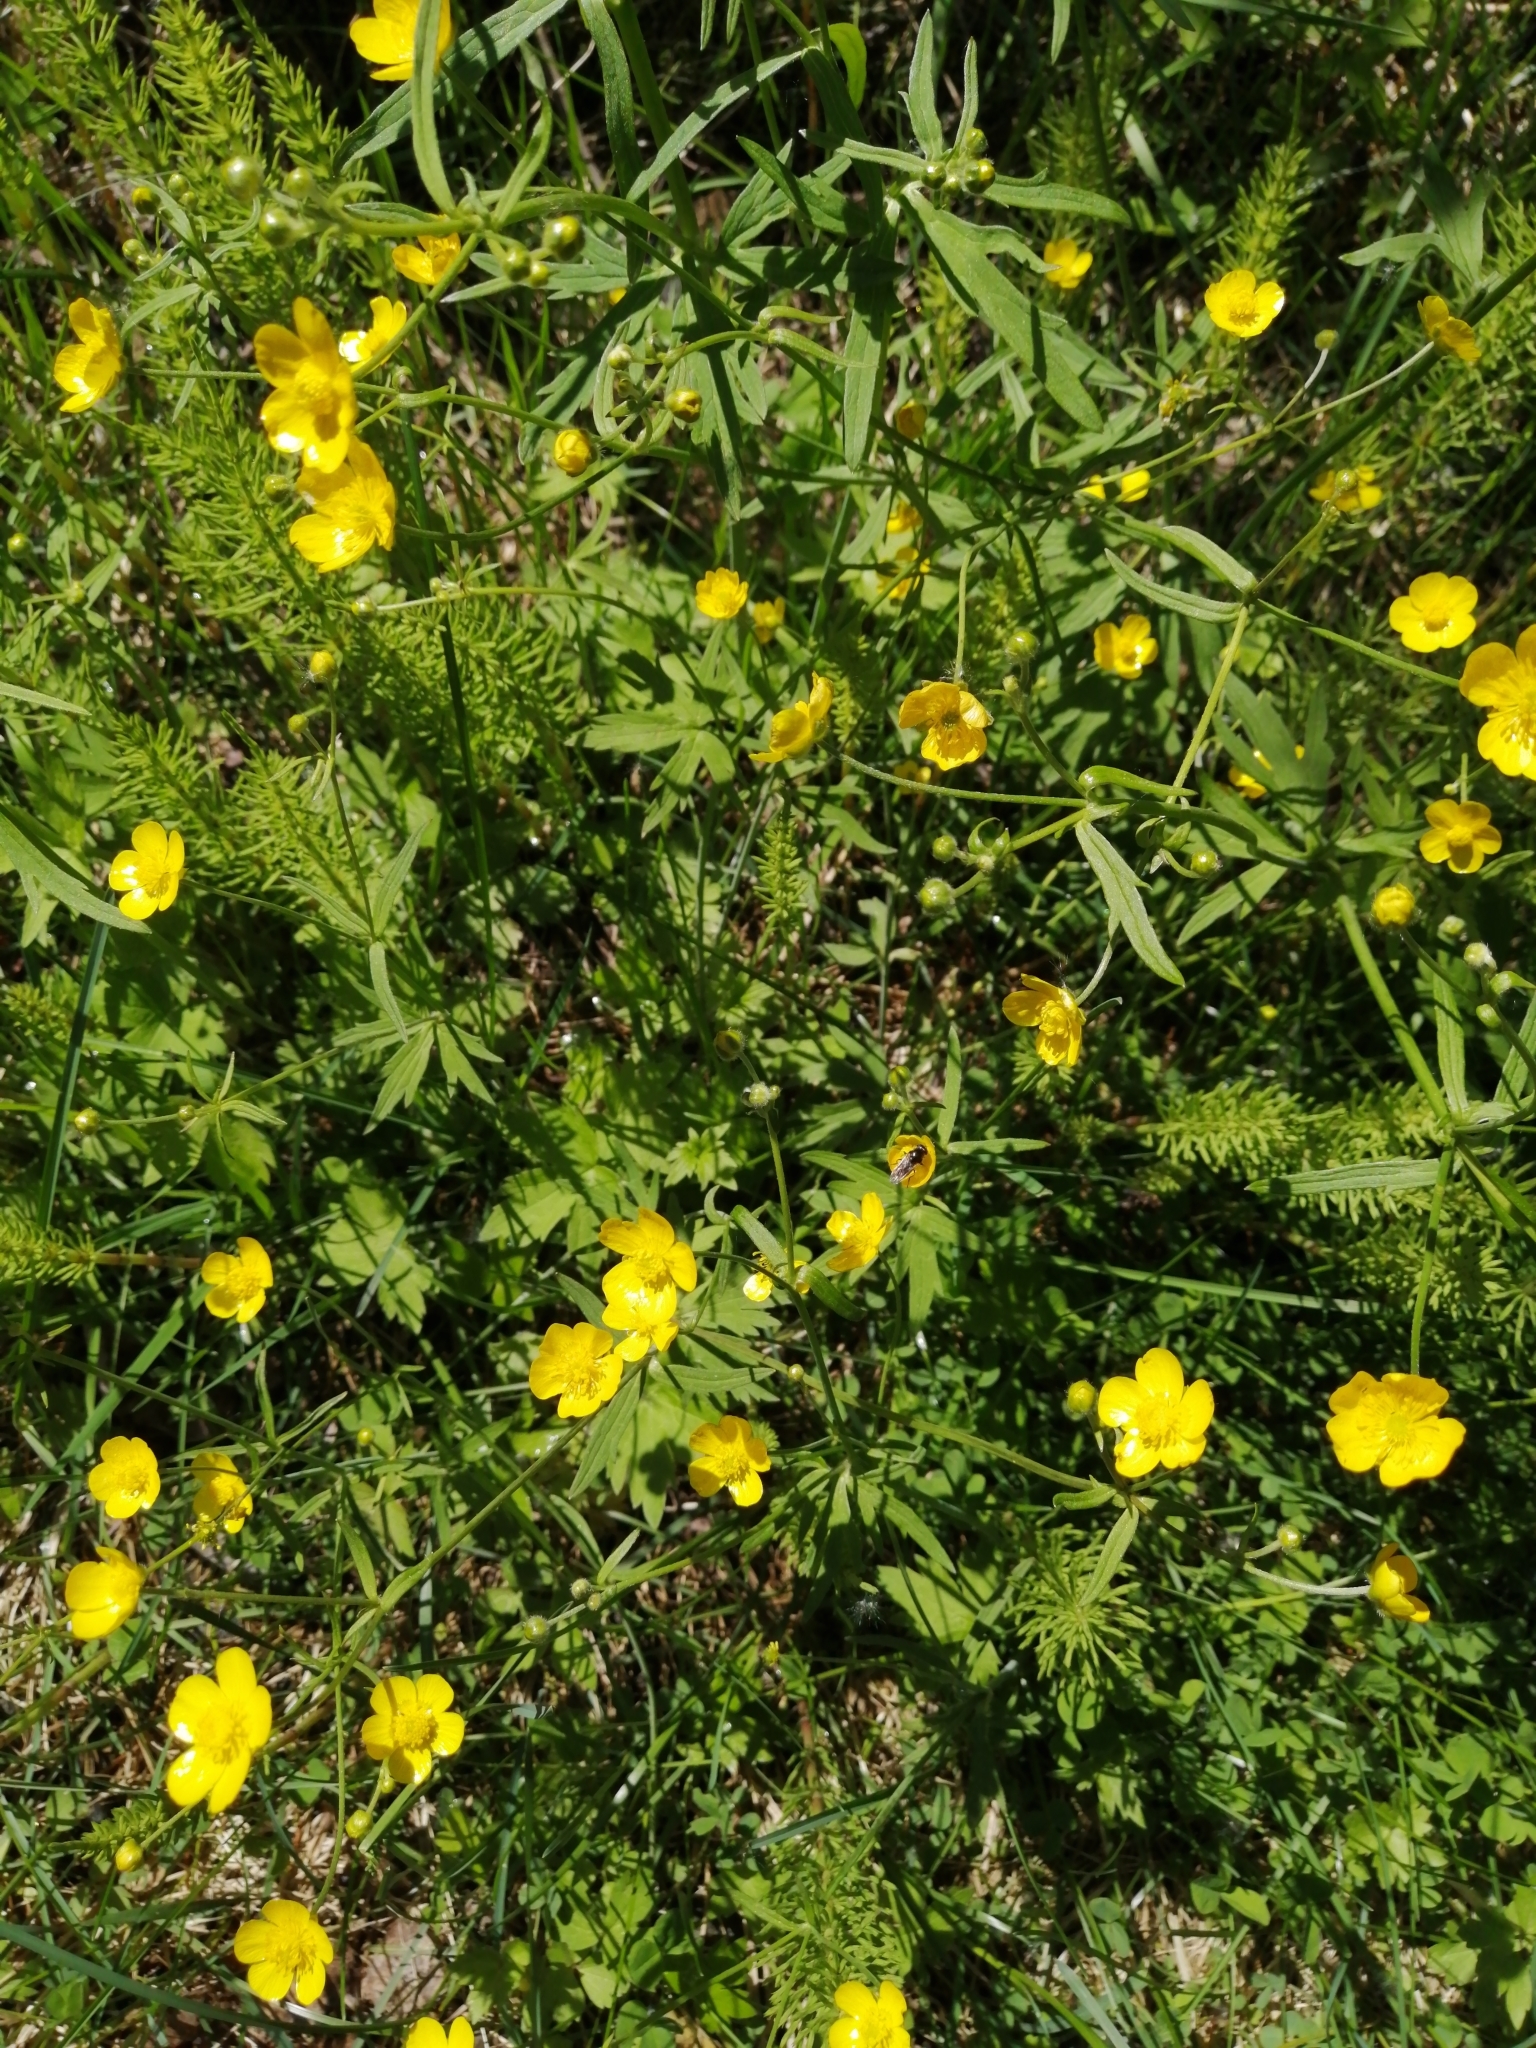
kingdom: Plantae
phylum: Tracheophyta
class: Magnoliopsida
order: Ranunculales
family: Ranunculaceae
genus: Ranunculus
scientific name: Ranunculus acris
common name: Meadow buttercup
